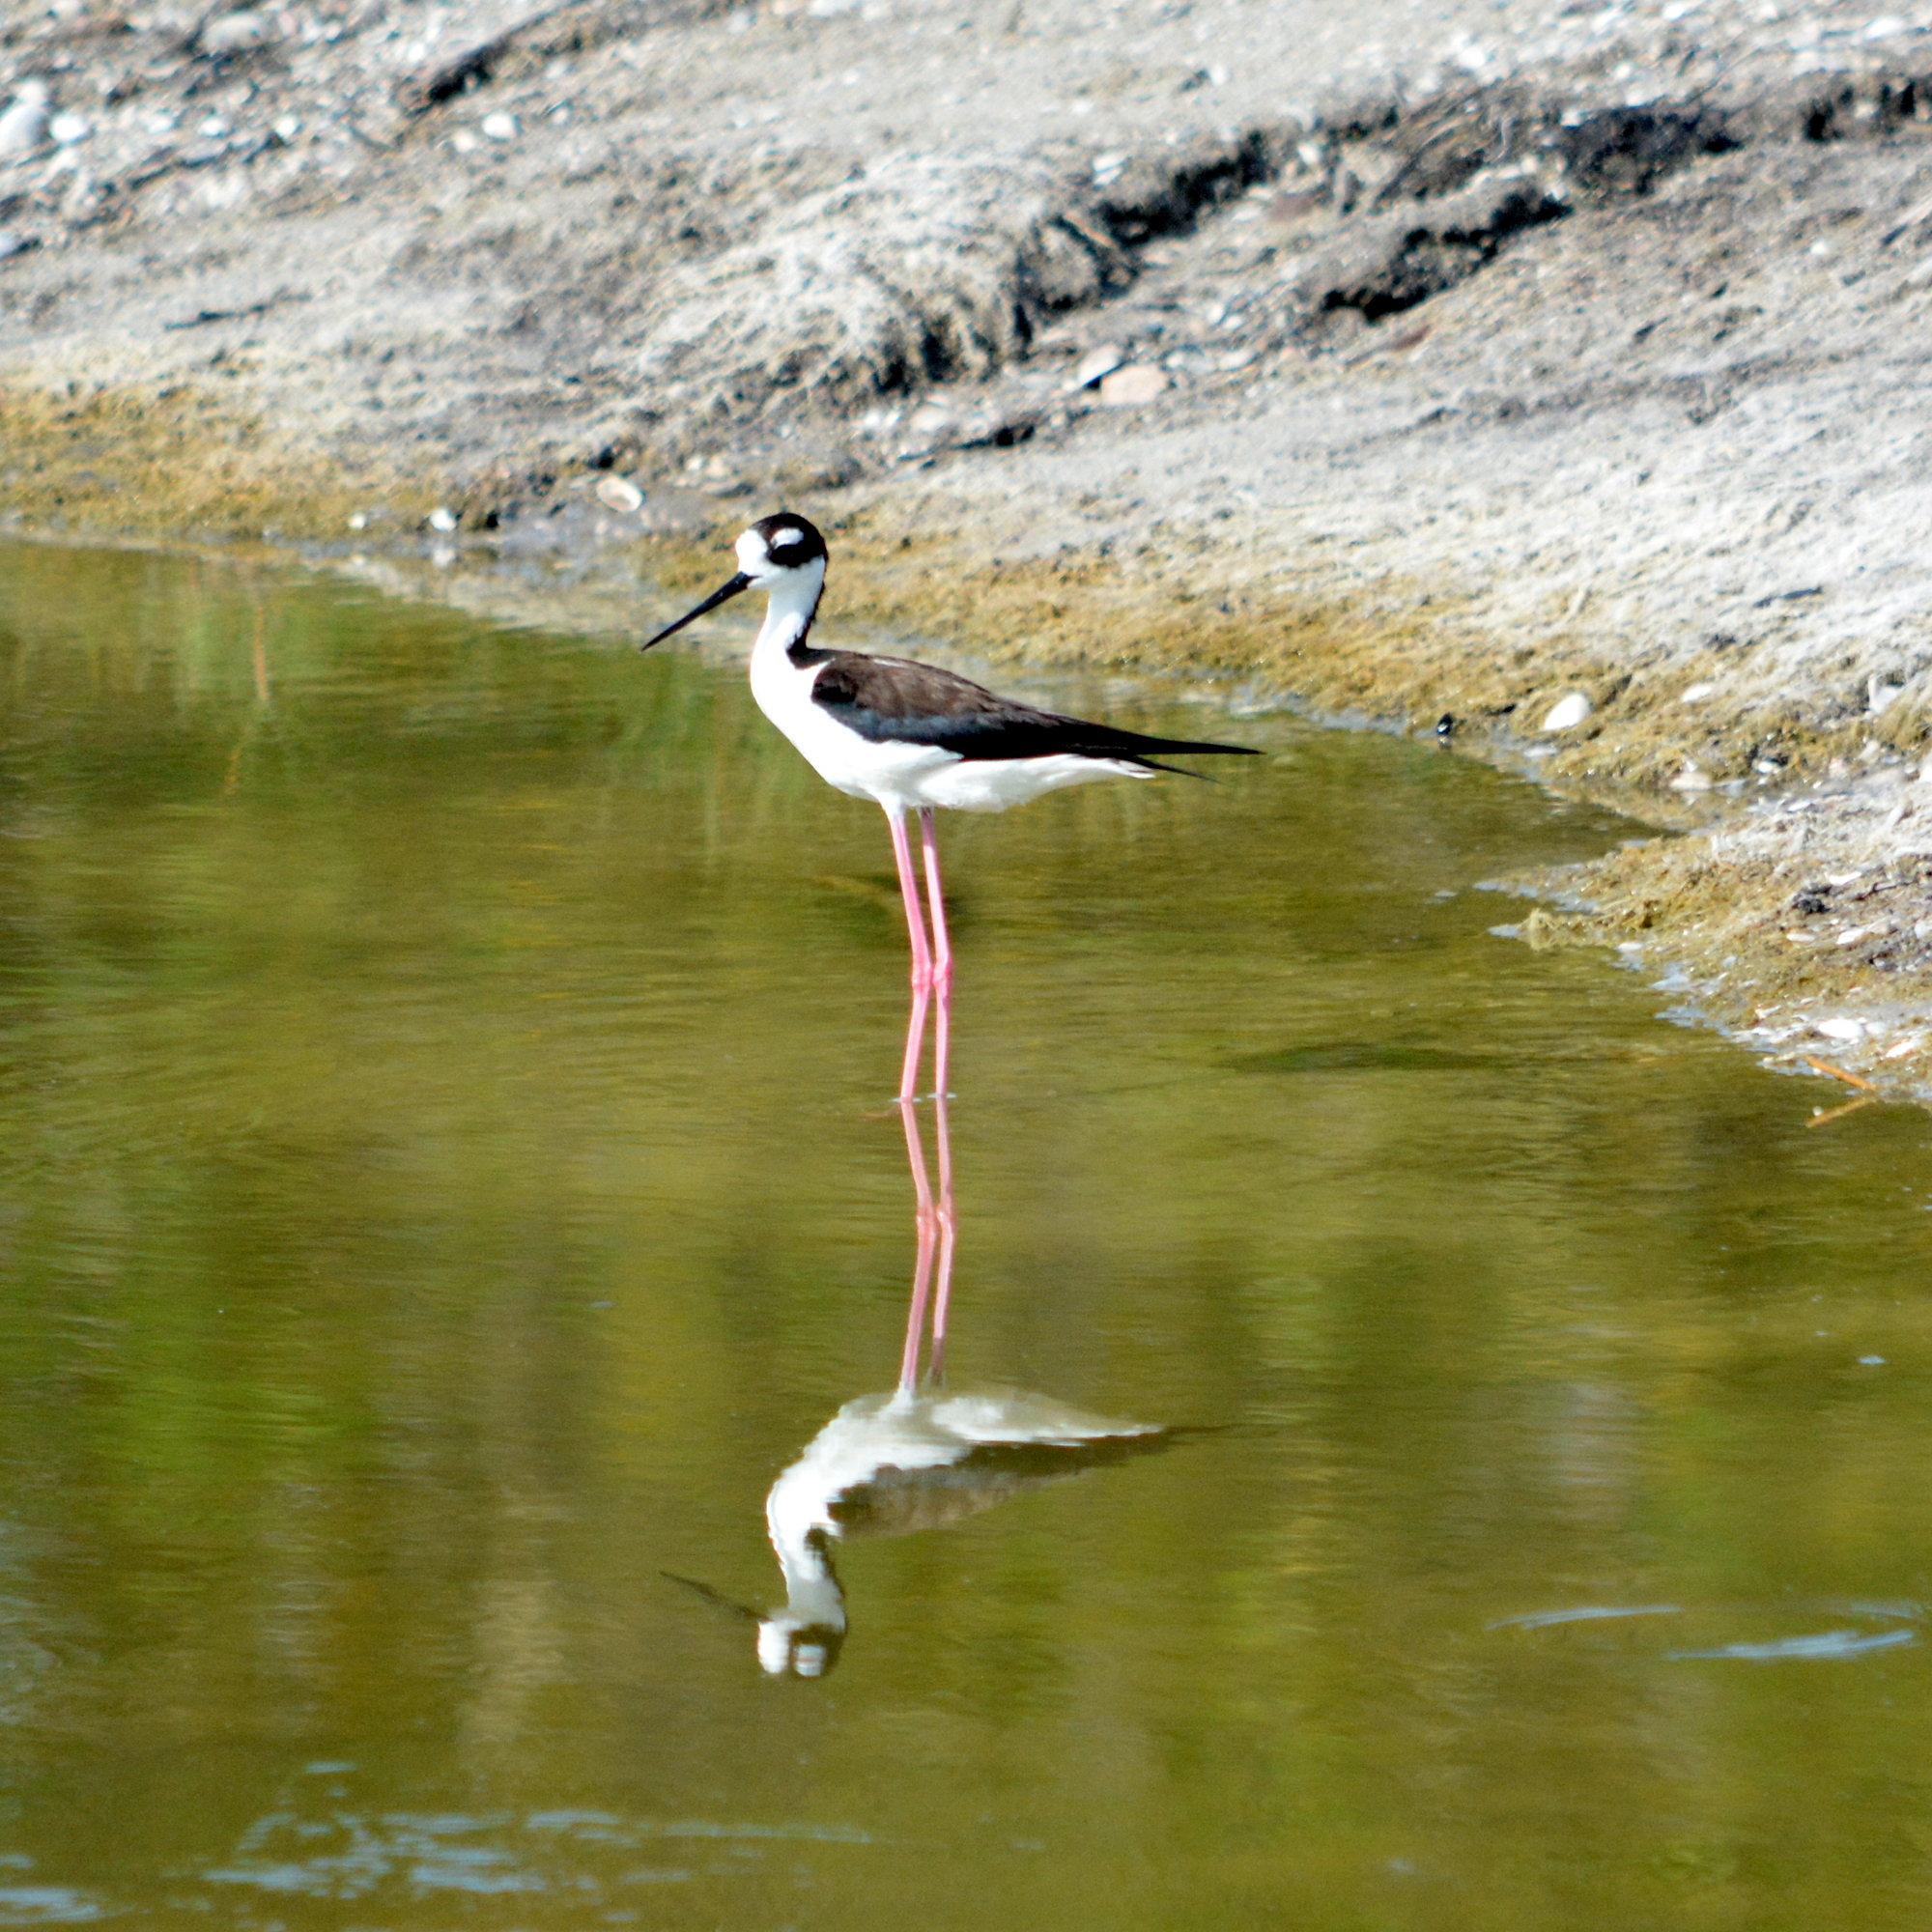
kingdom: Animalia
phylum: Chordata
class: Aves
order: Charadriiformes
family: Recurvirostridae
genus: Himantopus
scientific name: Himantopus mexicanus
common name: Black-necked stilt
